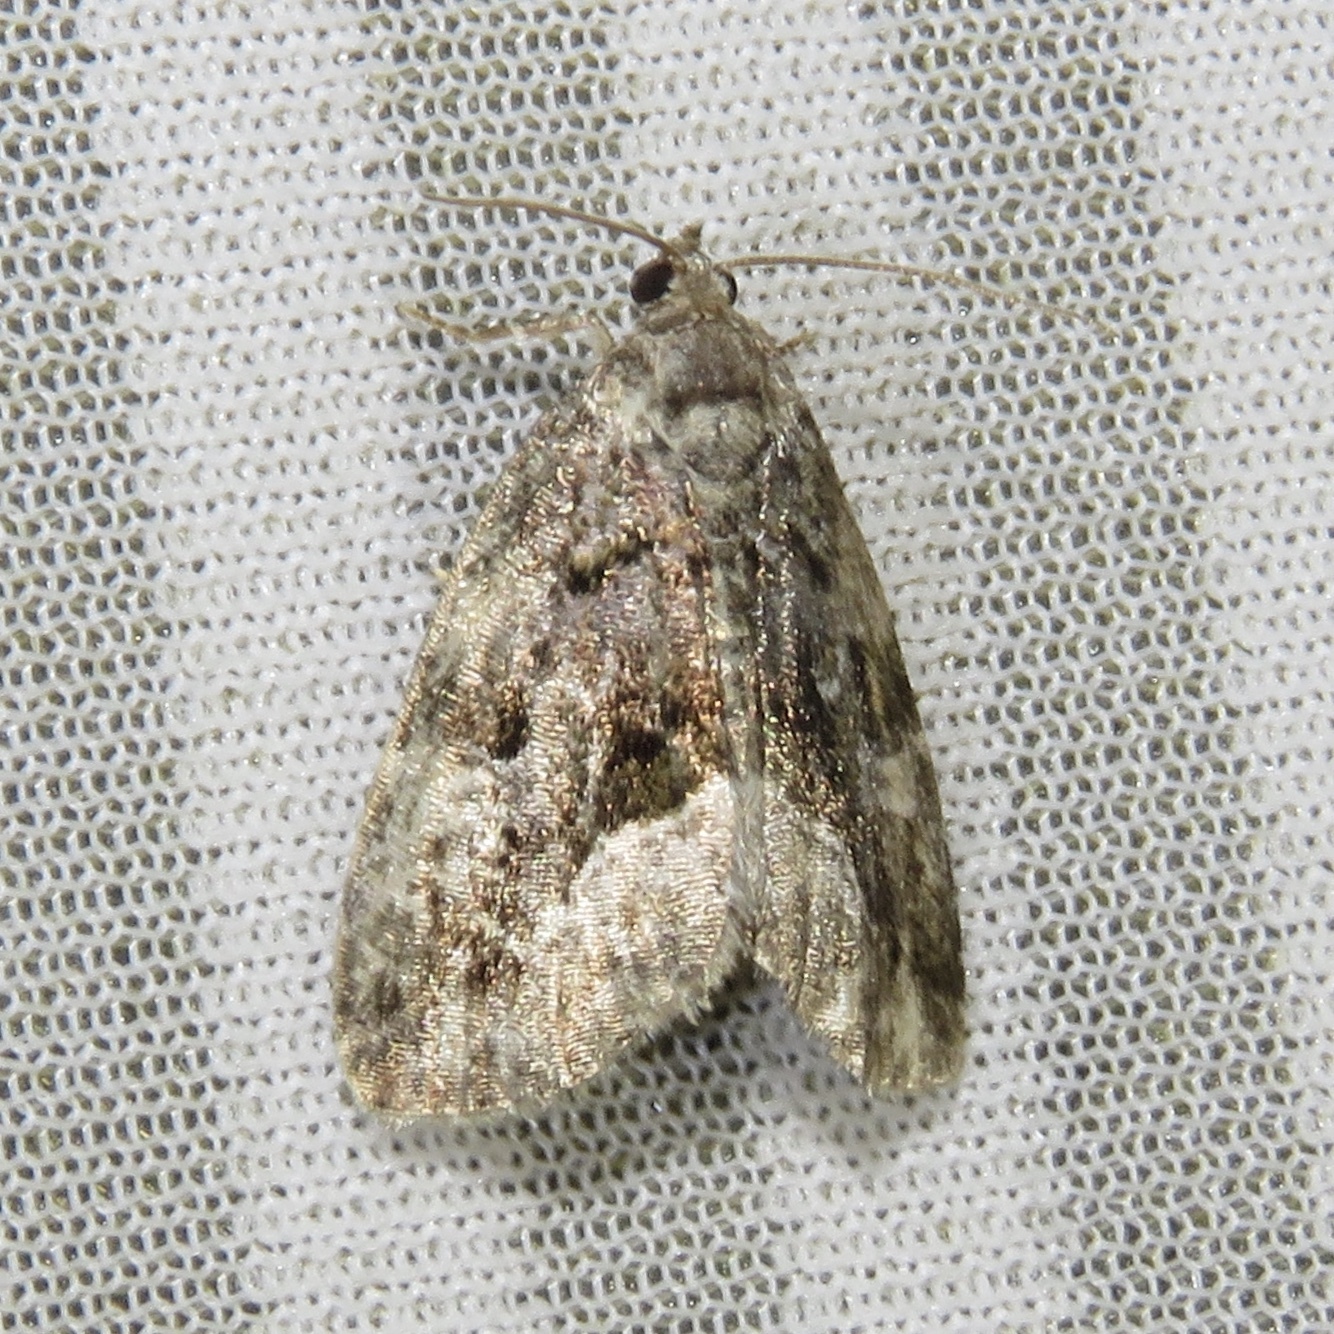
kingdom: Animalia
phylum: Arthropoda
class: Insecta
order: Lepidoptera
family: Noctuidae
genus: Protodeltote
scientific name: Protodeltote muscosula
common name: Large mossy glyph
